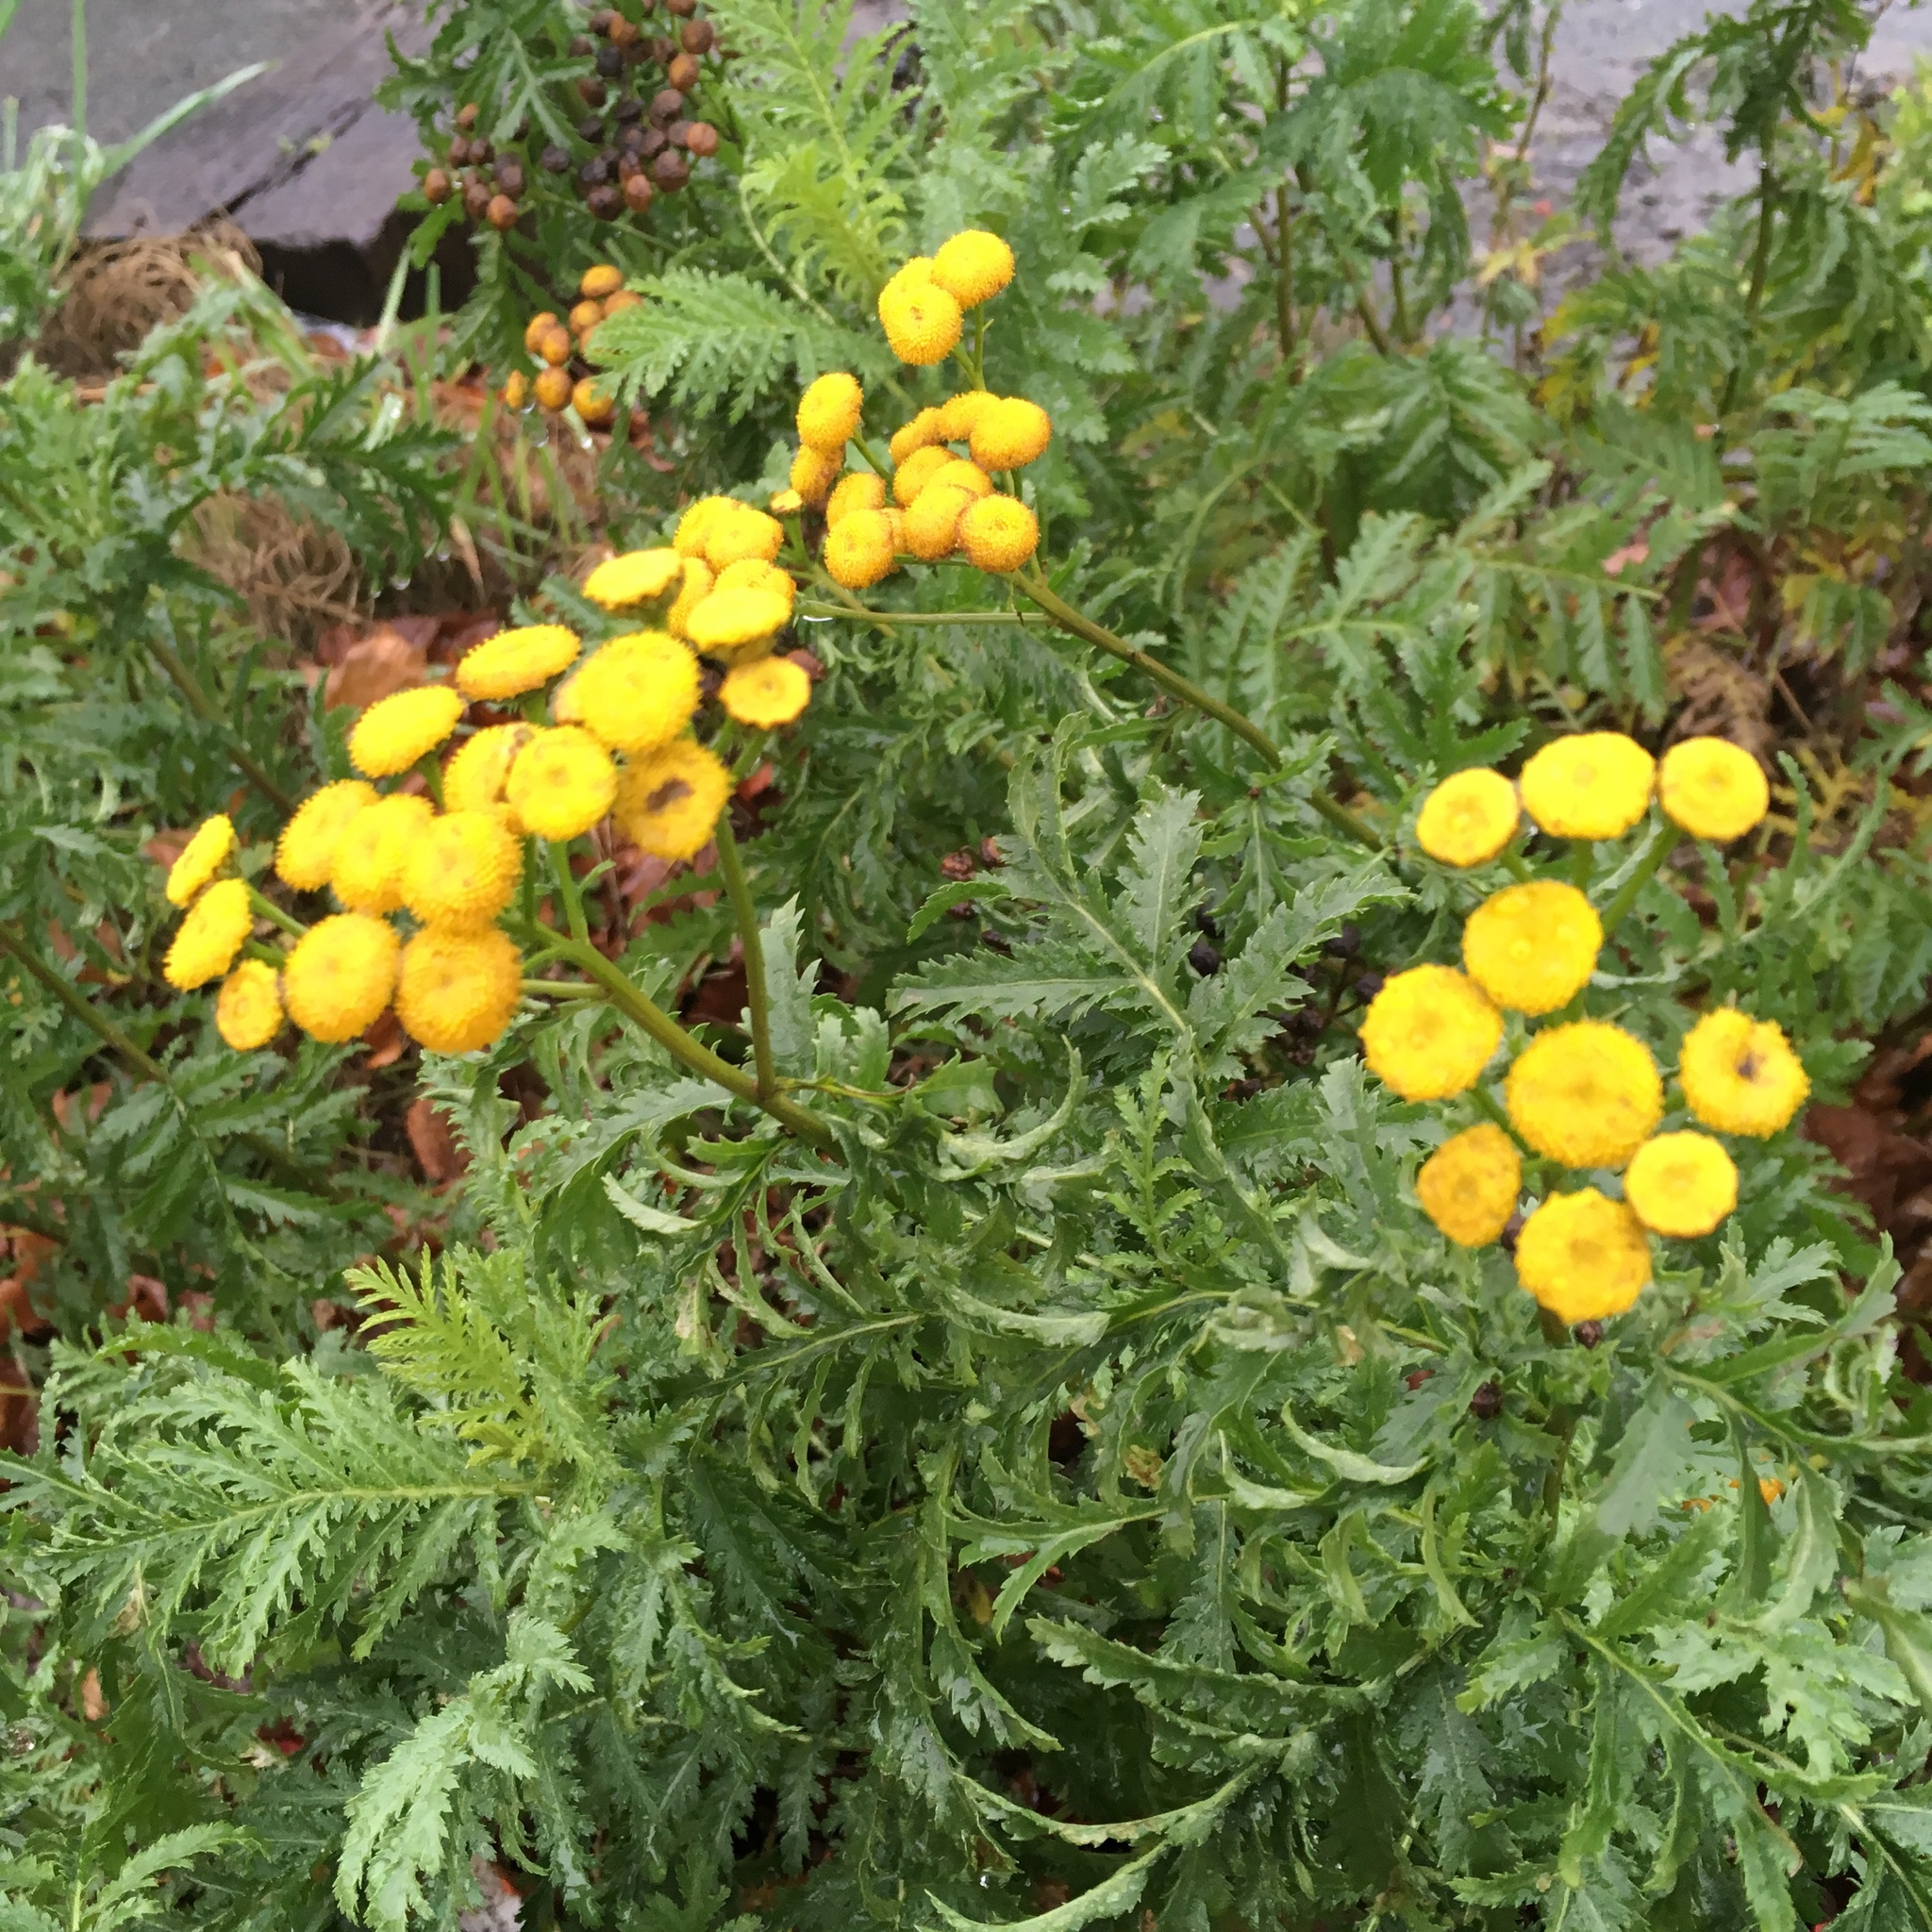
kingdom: Plantae
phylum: Tracheophyta
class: Magnoliopsida
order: Asterales
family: Asteraceae
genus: Tanacetum
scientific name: Tanacetum vulgare
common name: Common tansy
